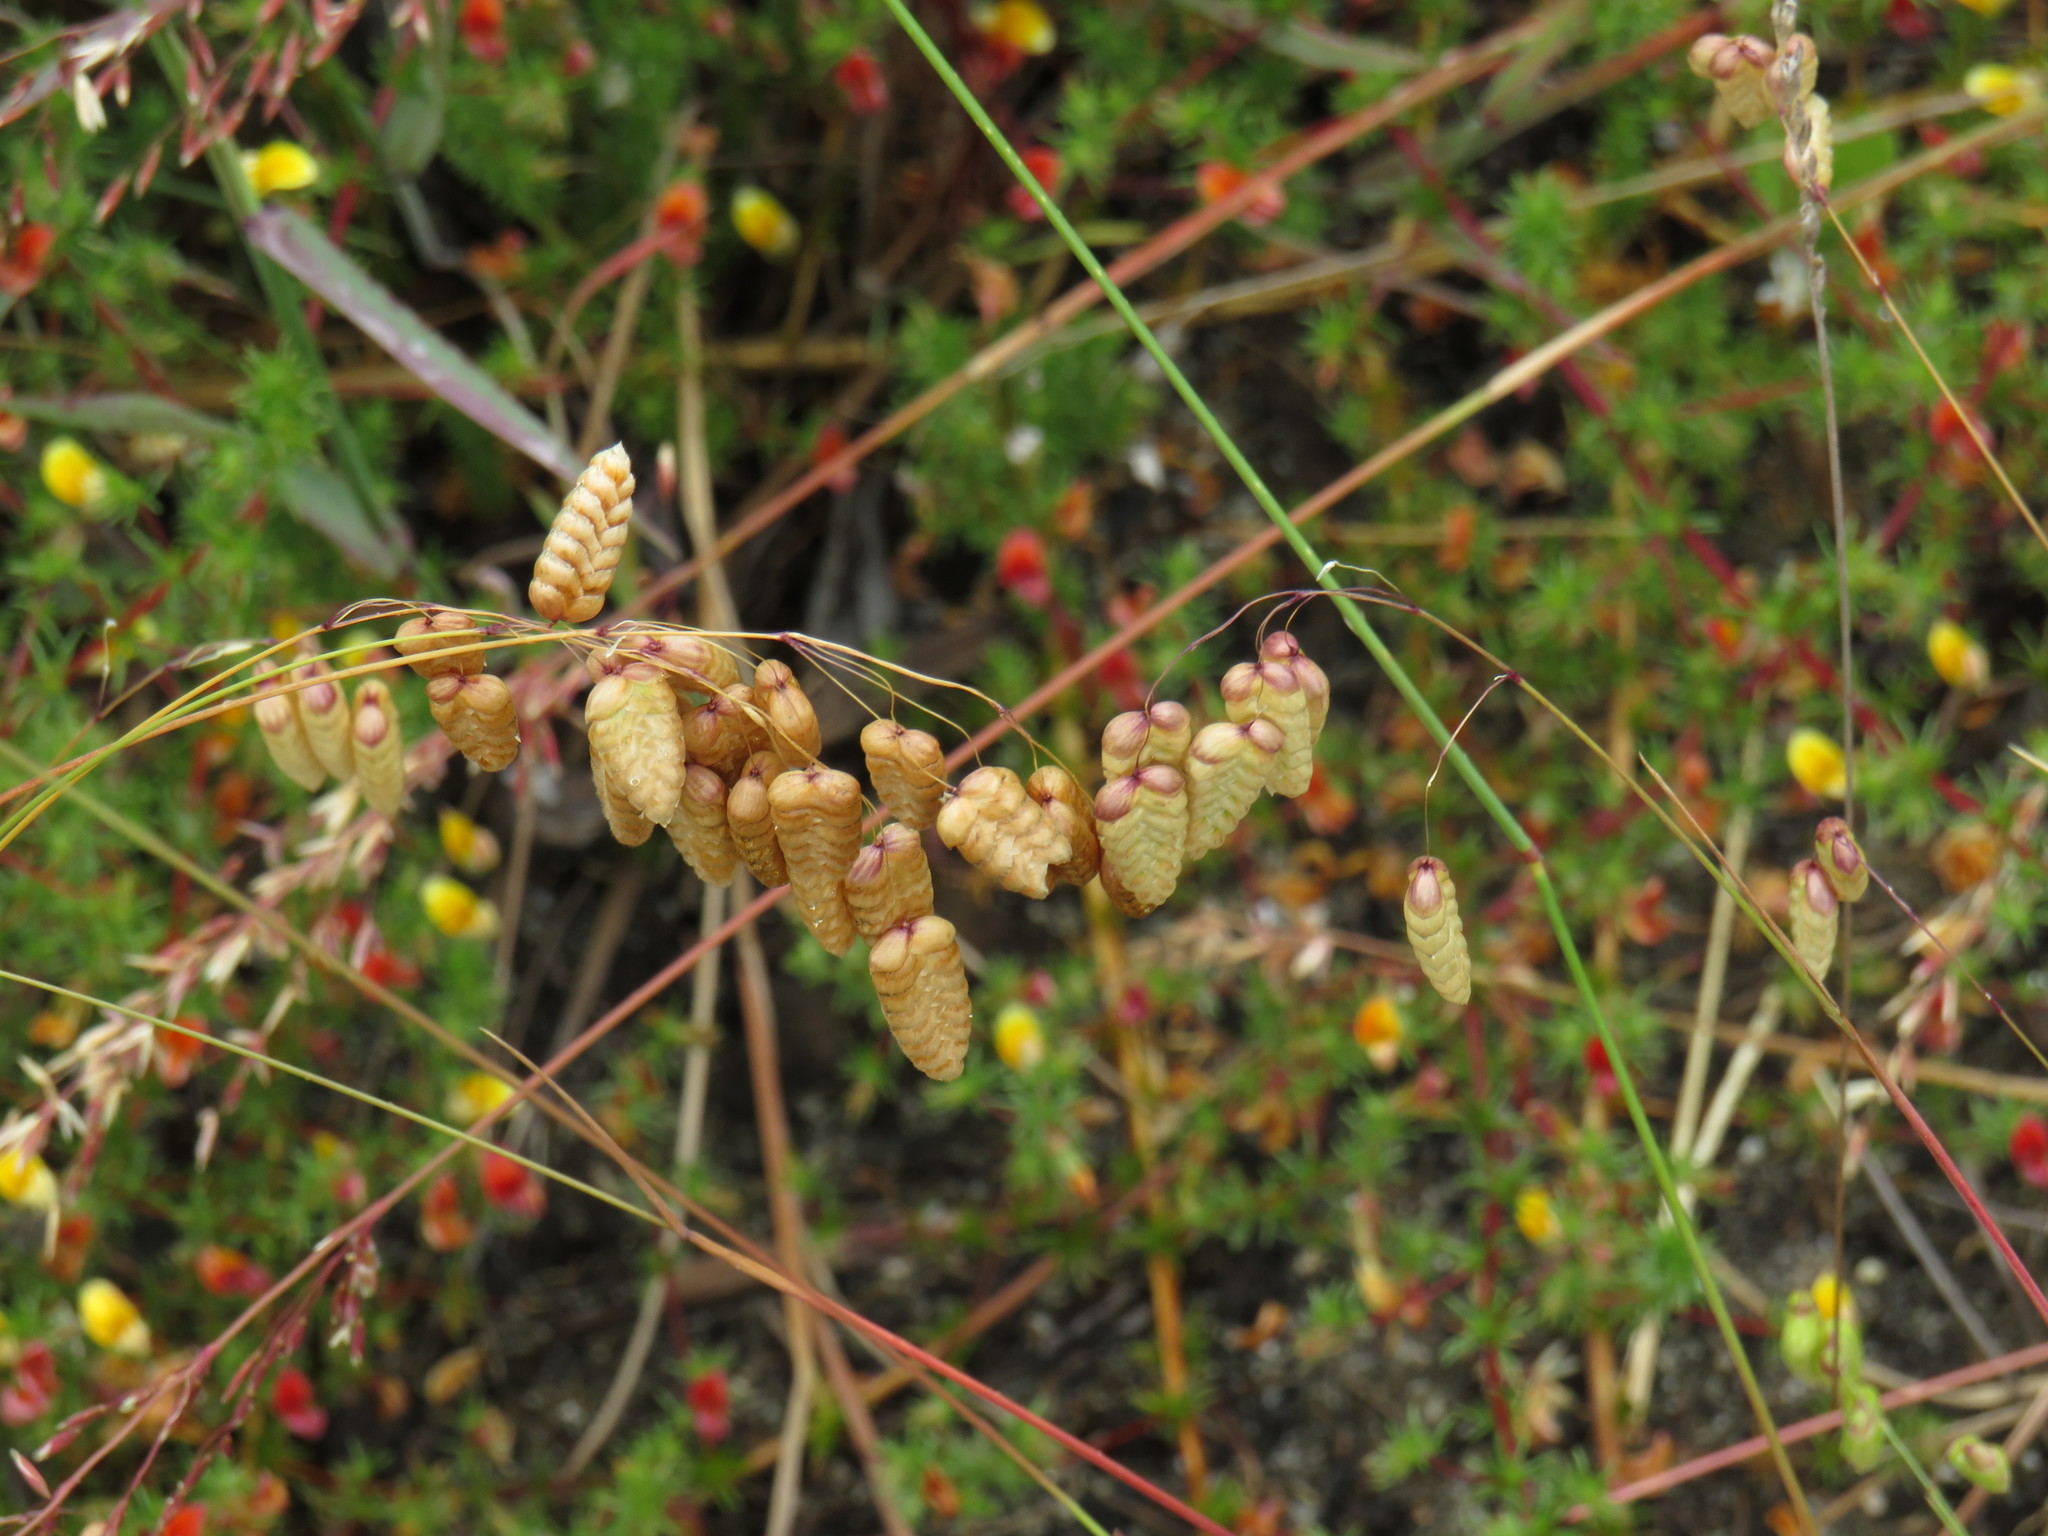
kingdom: Plantae
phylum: Tracheophyta
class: Liliopsida
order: Poales
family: Poaceae
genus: Briza
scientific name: Briza maxima
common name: Big quakinggrass
